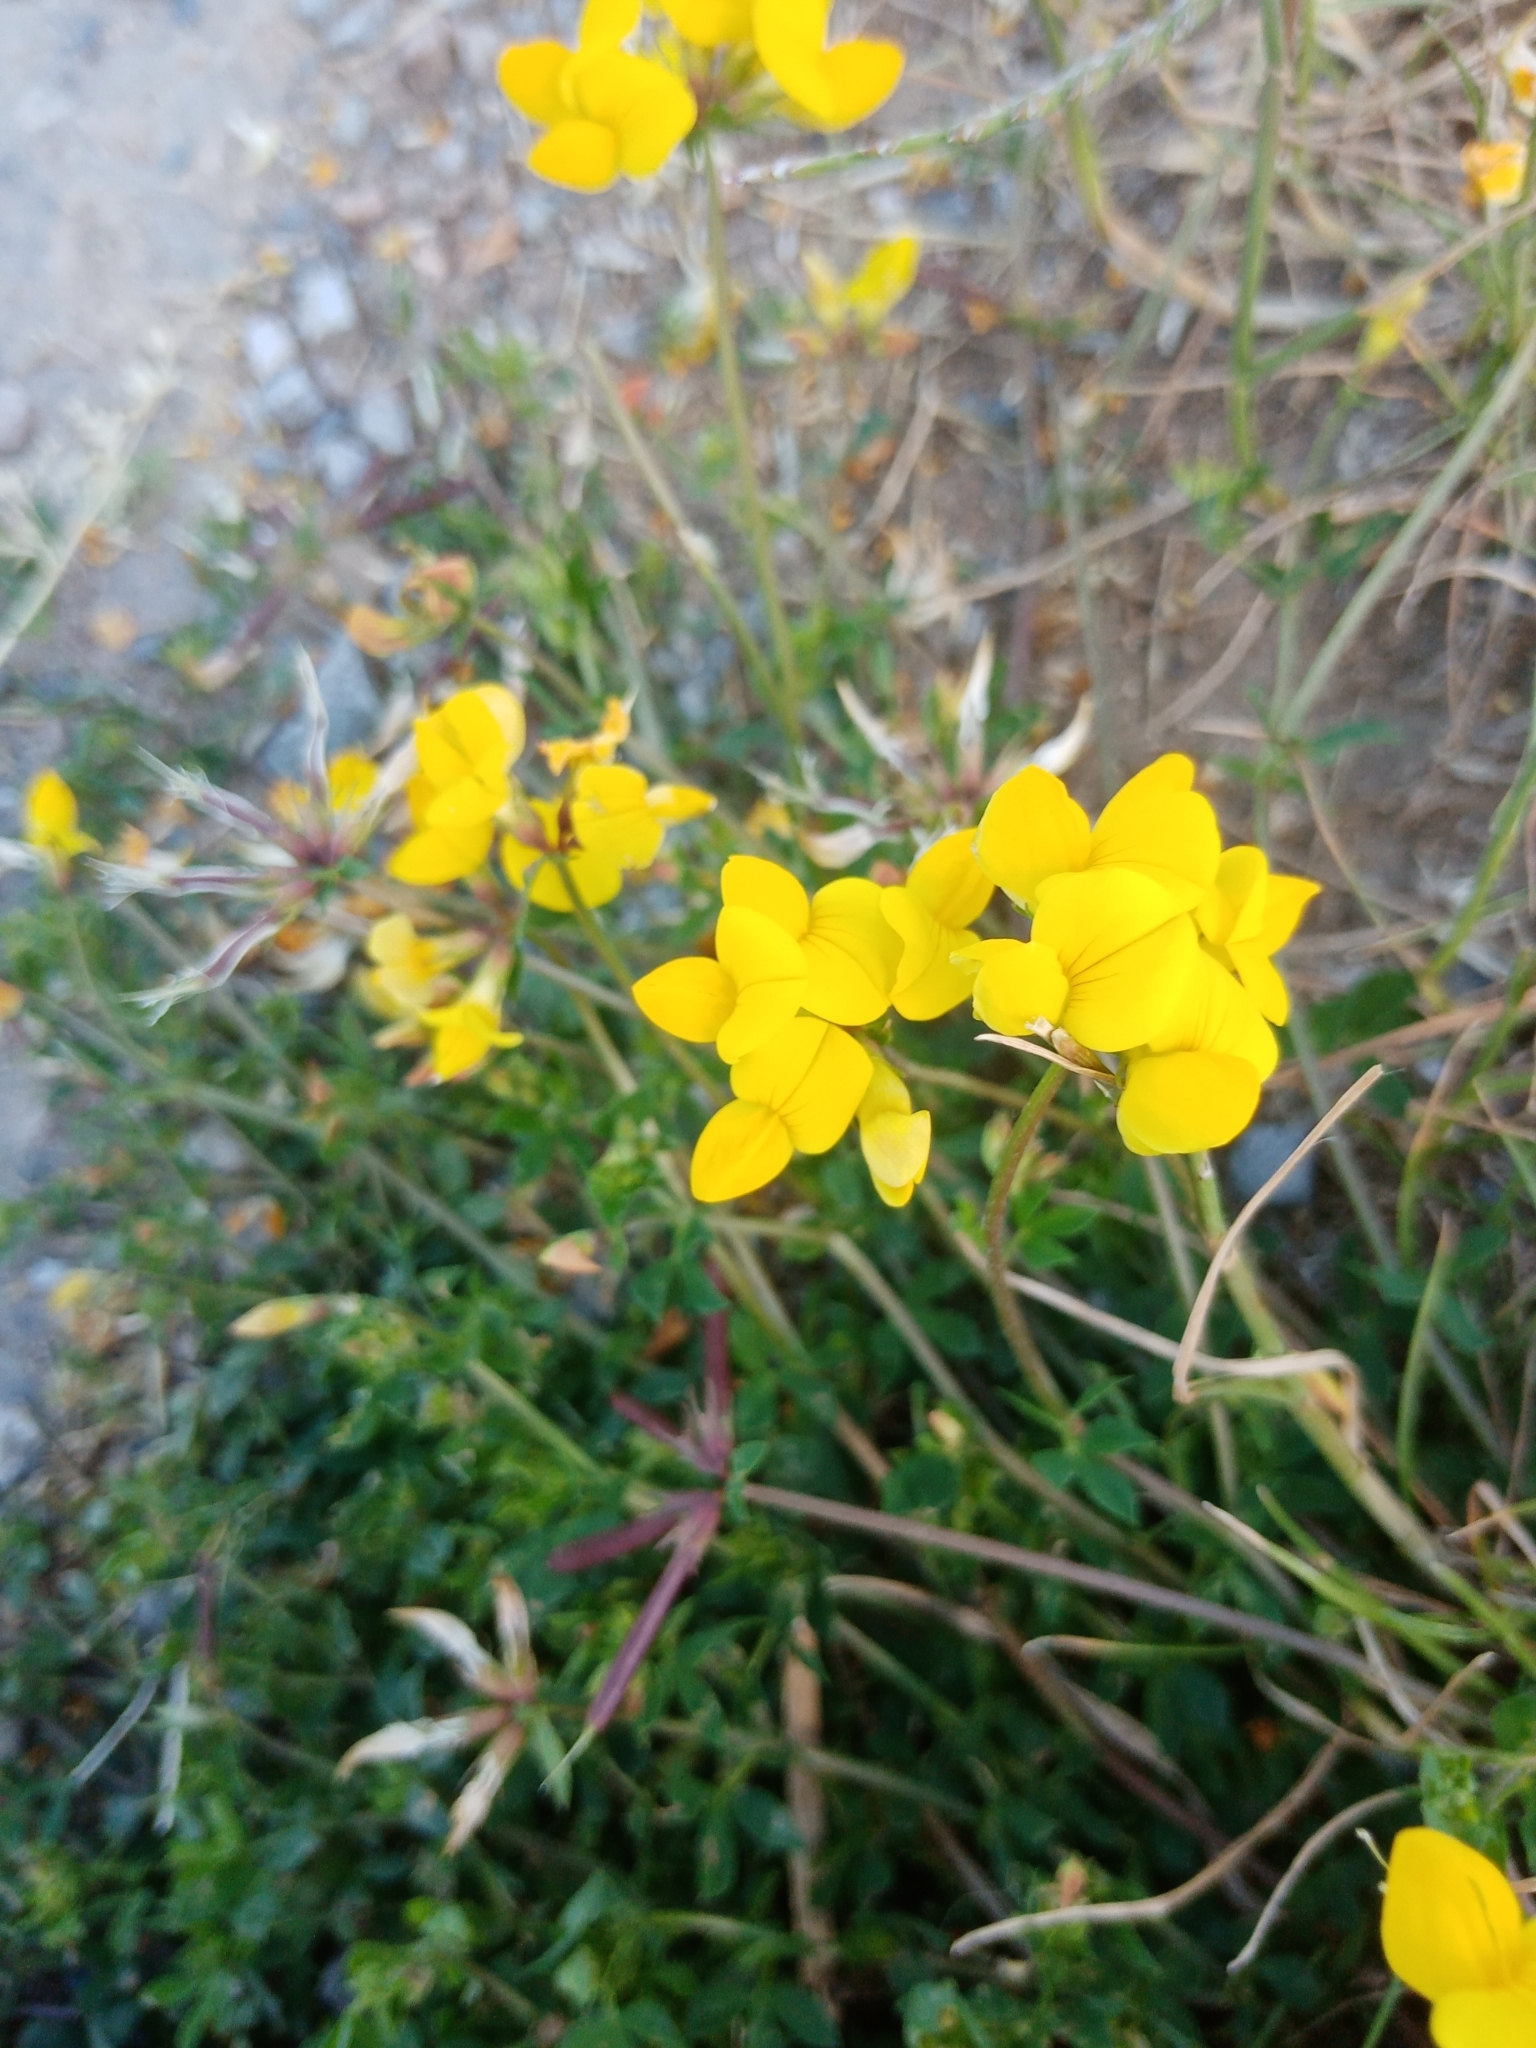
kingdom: Plantae
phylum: Tracheophyta
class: Magnoliopsida
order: Fabales
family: Fabaceae
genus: Lotus
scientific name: Lotus corniculatus
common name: Common bird's-foot-trefoil
